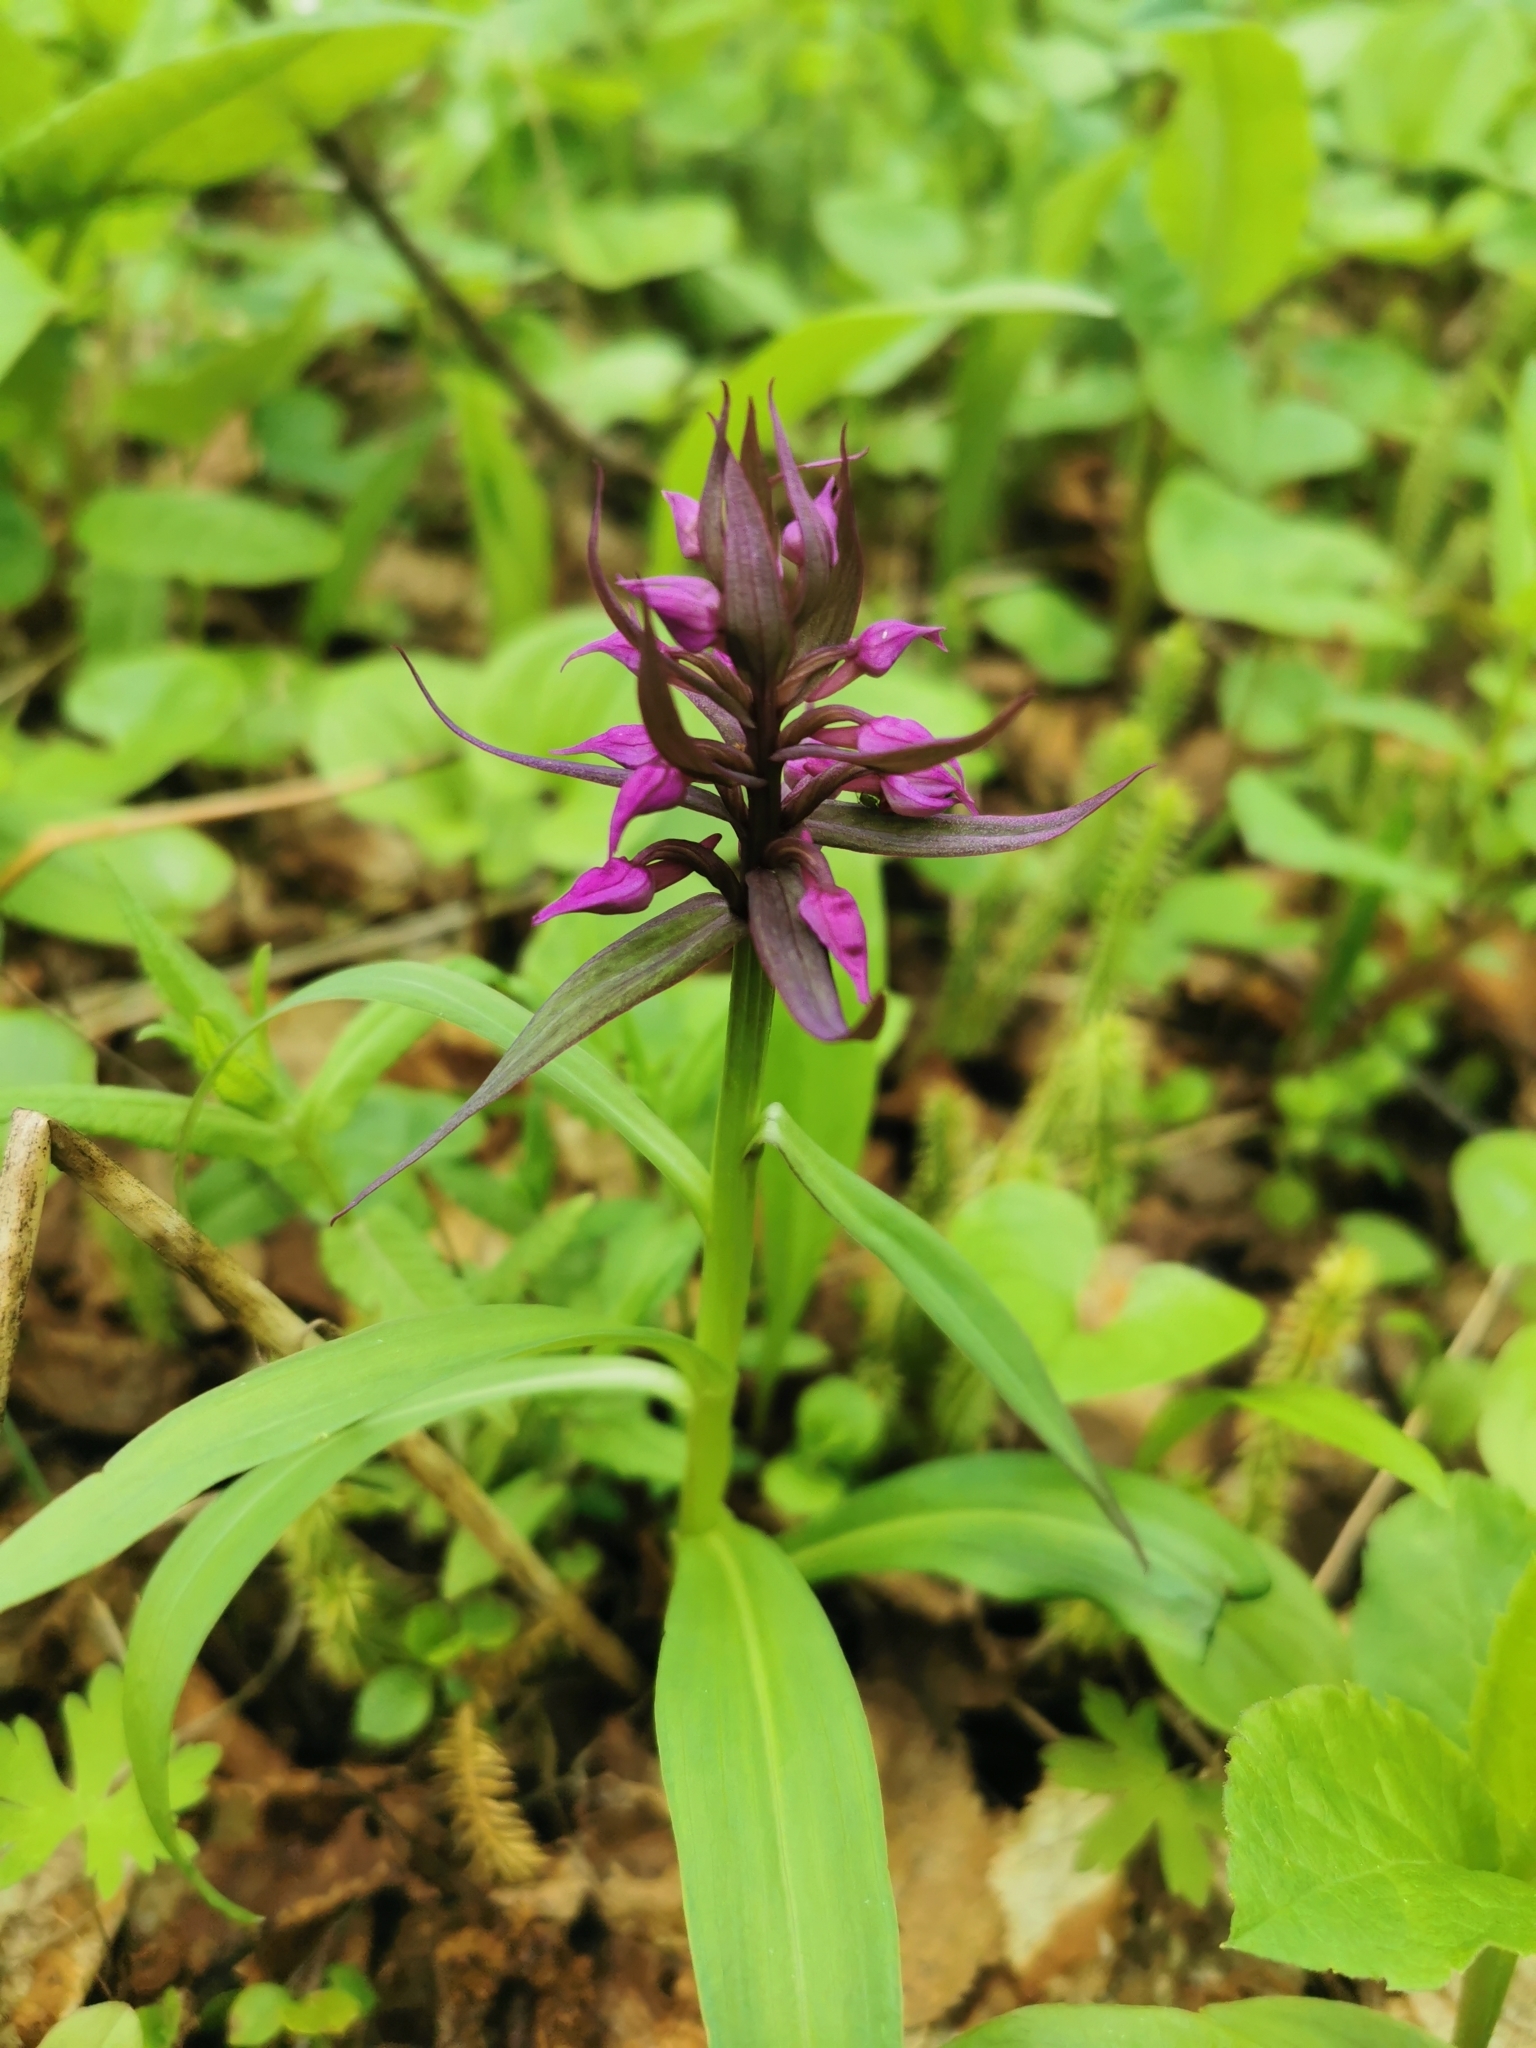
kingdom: Plantae
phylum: Tracheophyta
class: Liliopsida
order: Asparagales
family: Orchidaceae
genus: Dactylorhiza
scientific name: Dactylorhiza aristata
